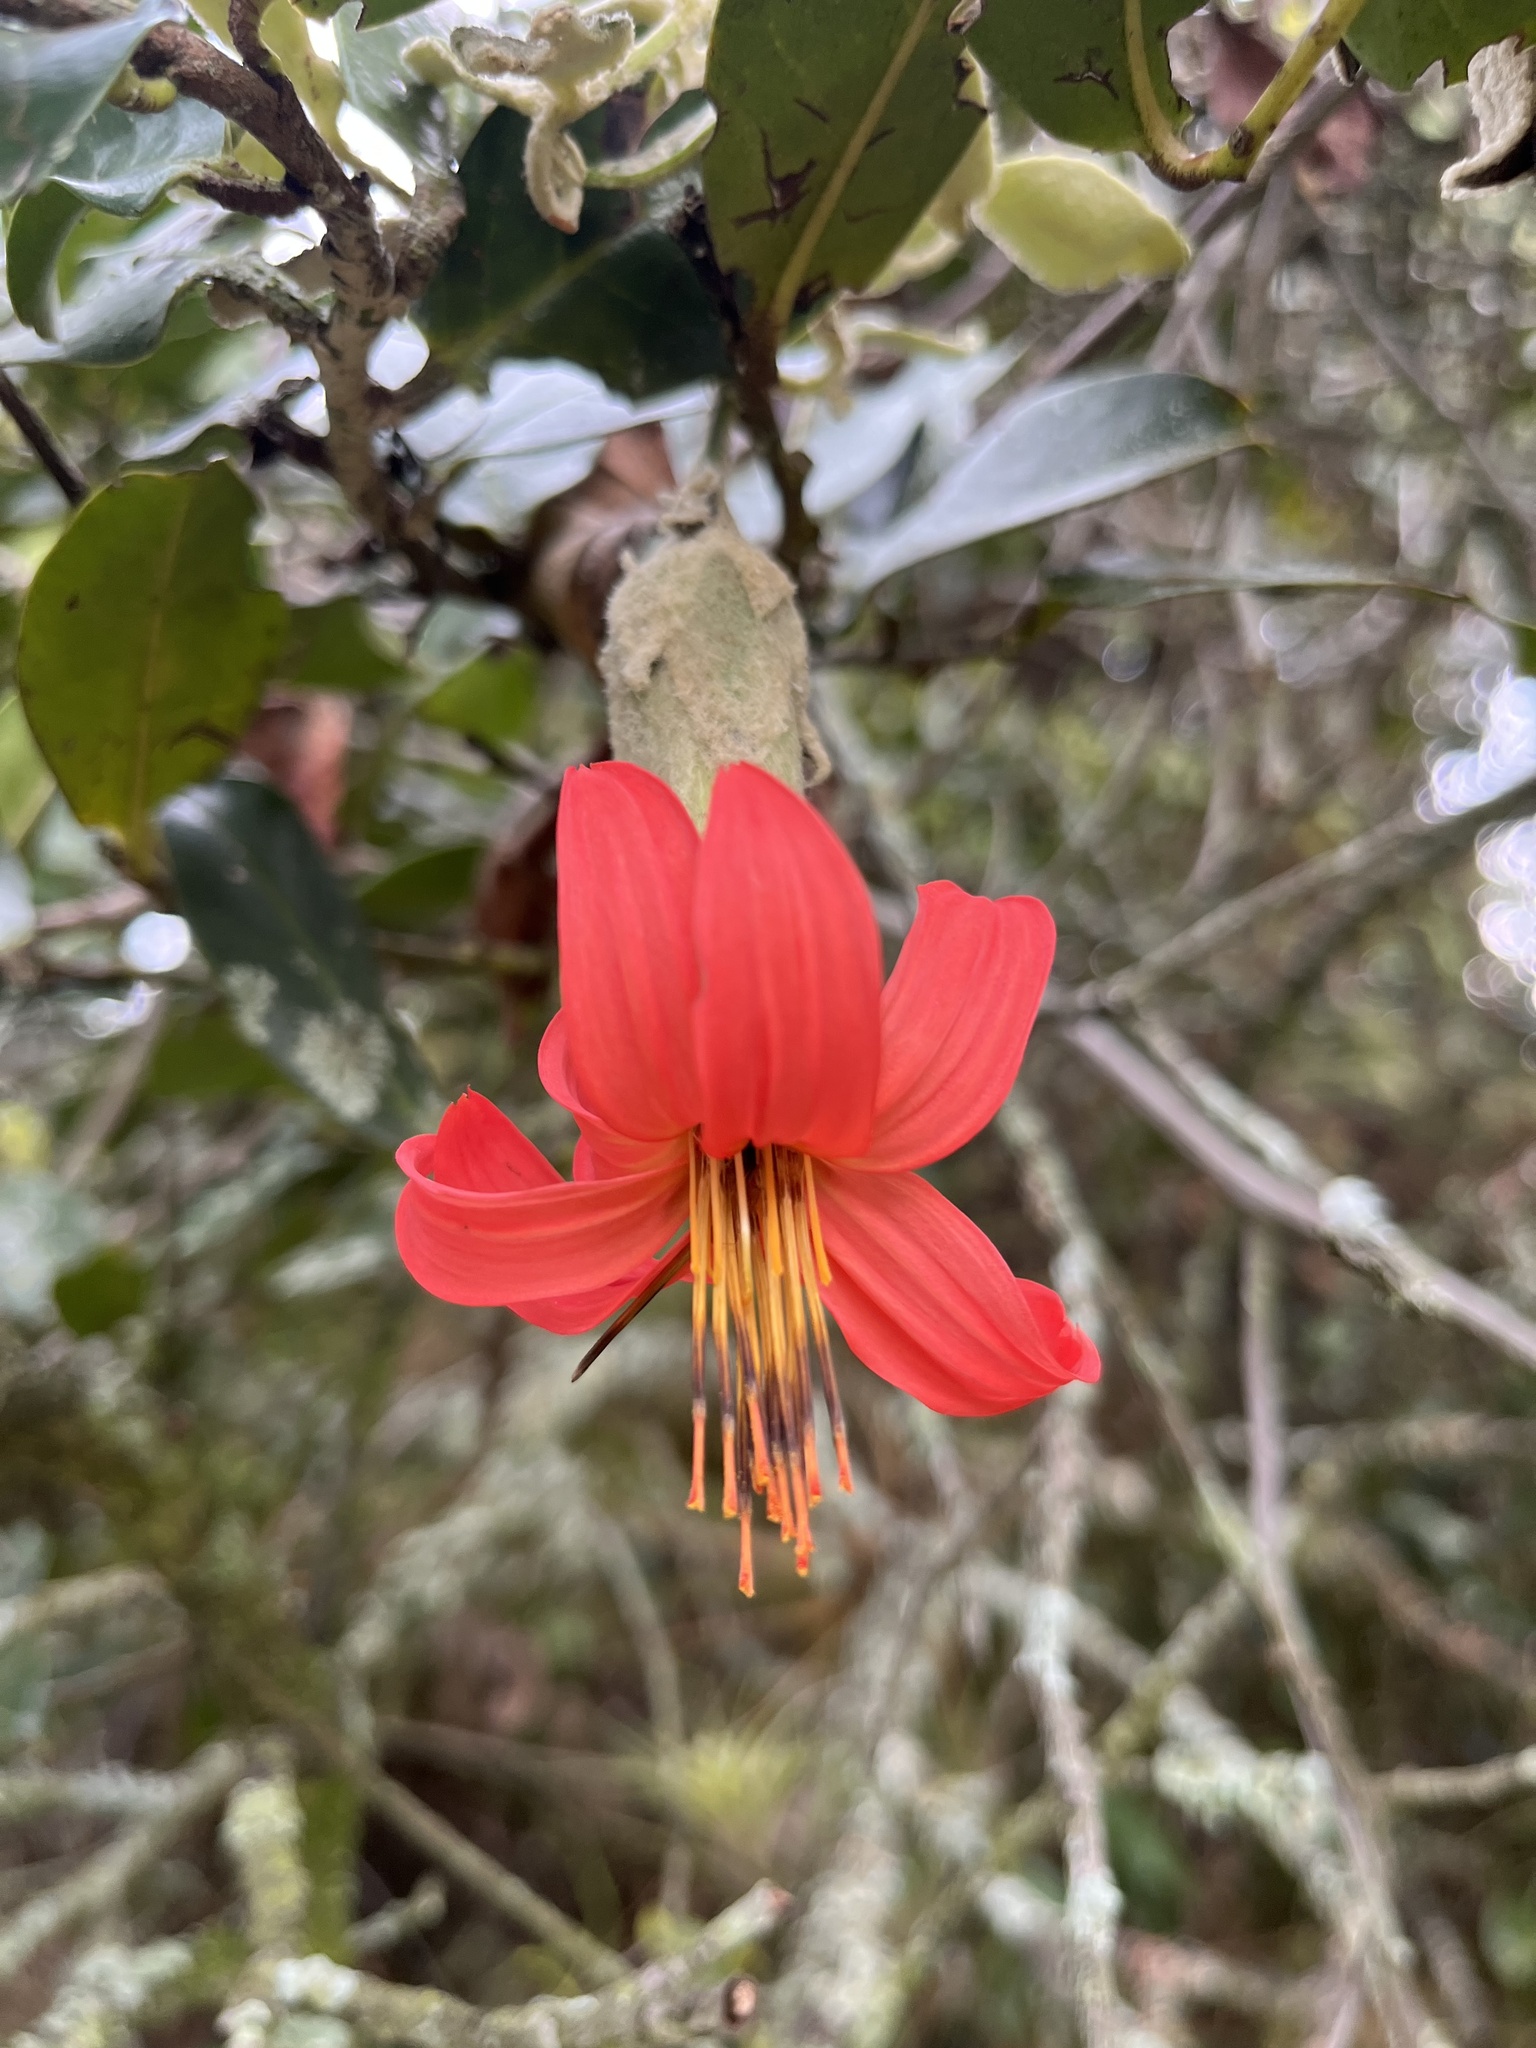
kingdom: Plantae
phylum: Tracheophyta
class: Magnoliopsida
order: Asterales
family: Asteraceae
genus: Mutisia
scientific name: Mutisia clematis
